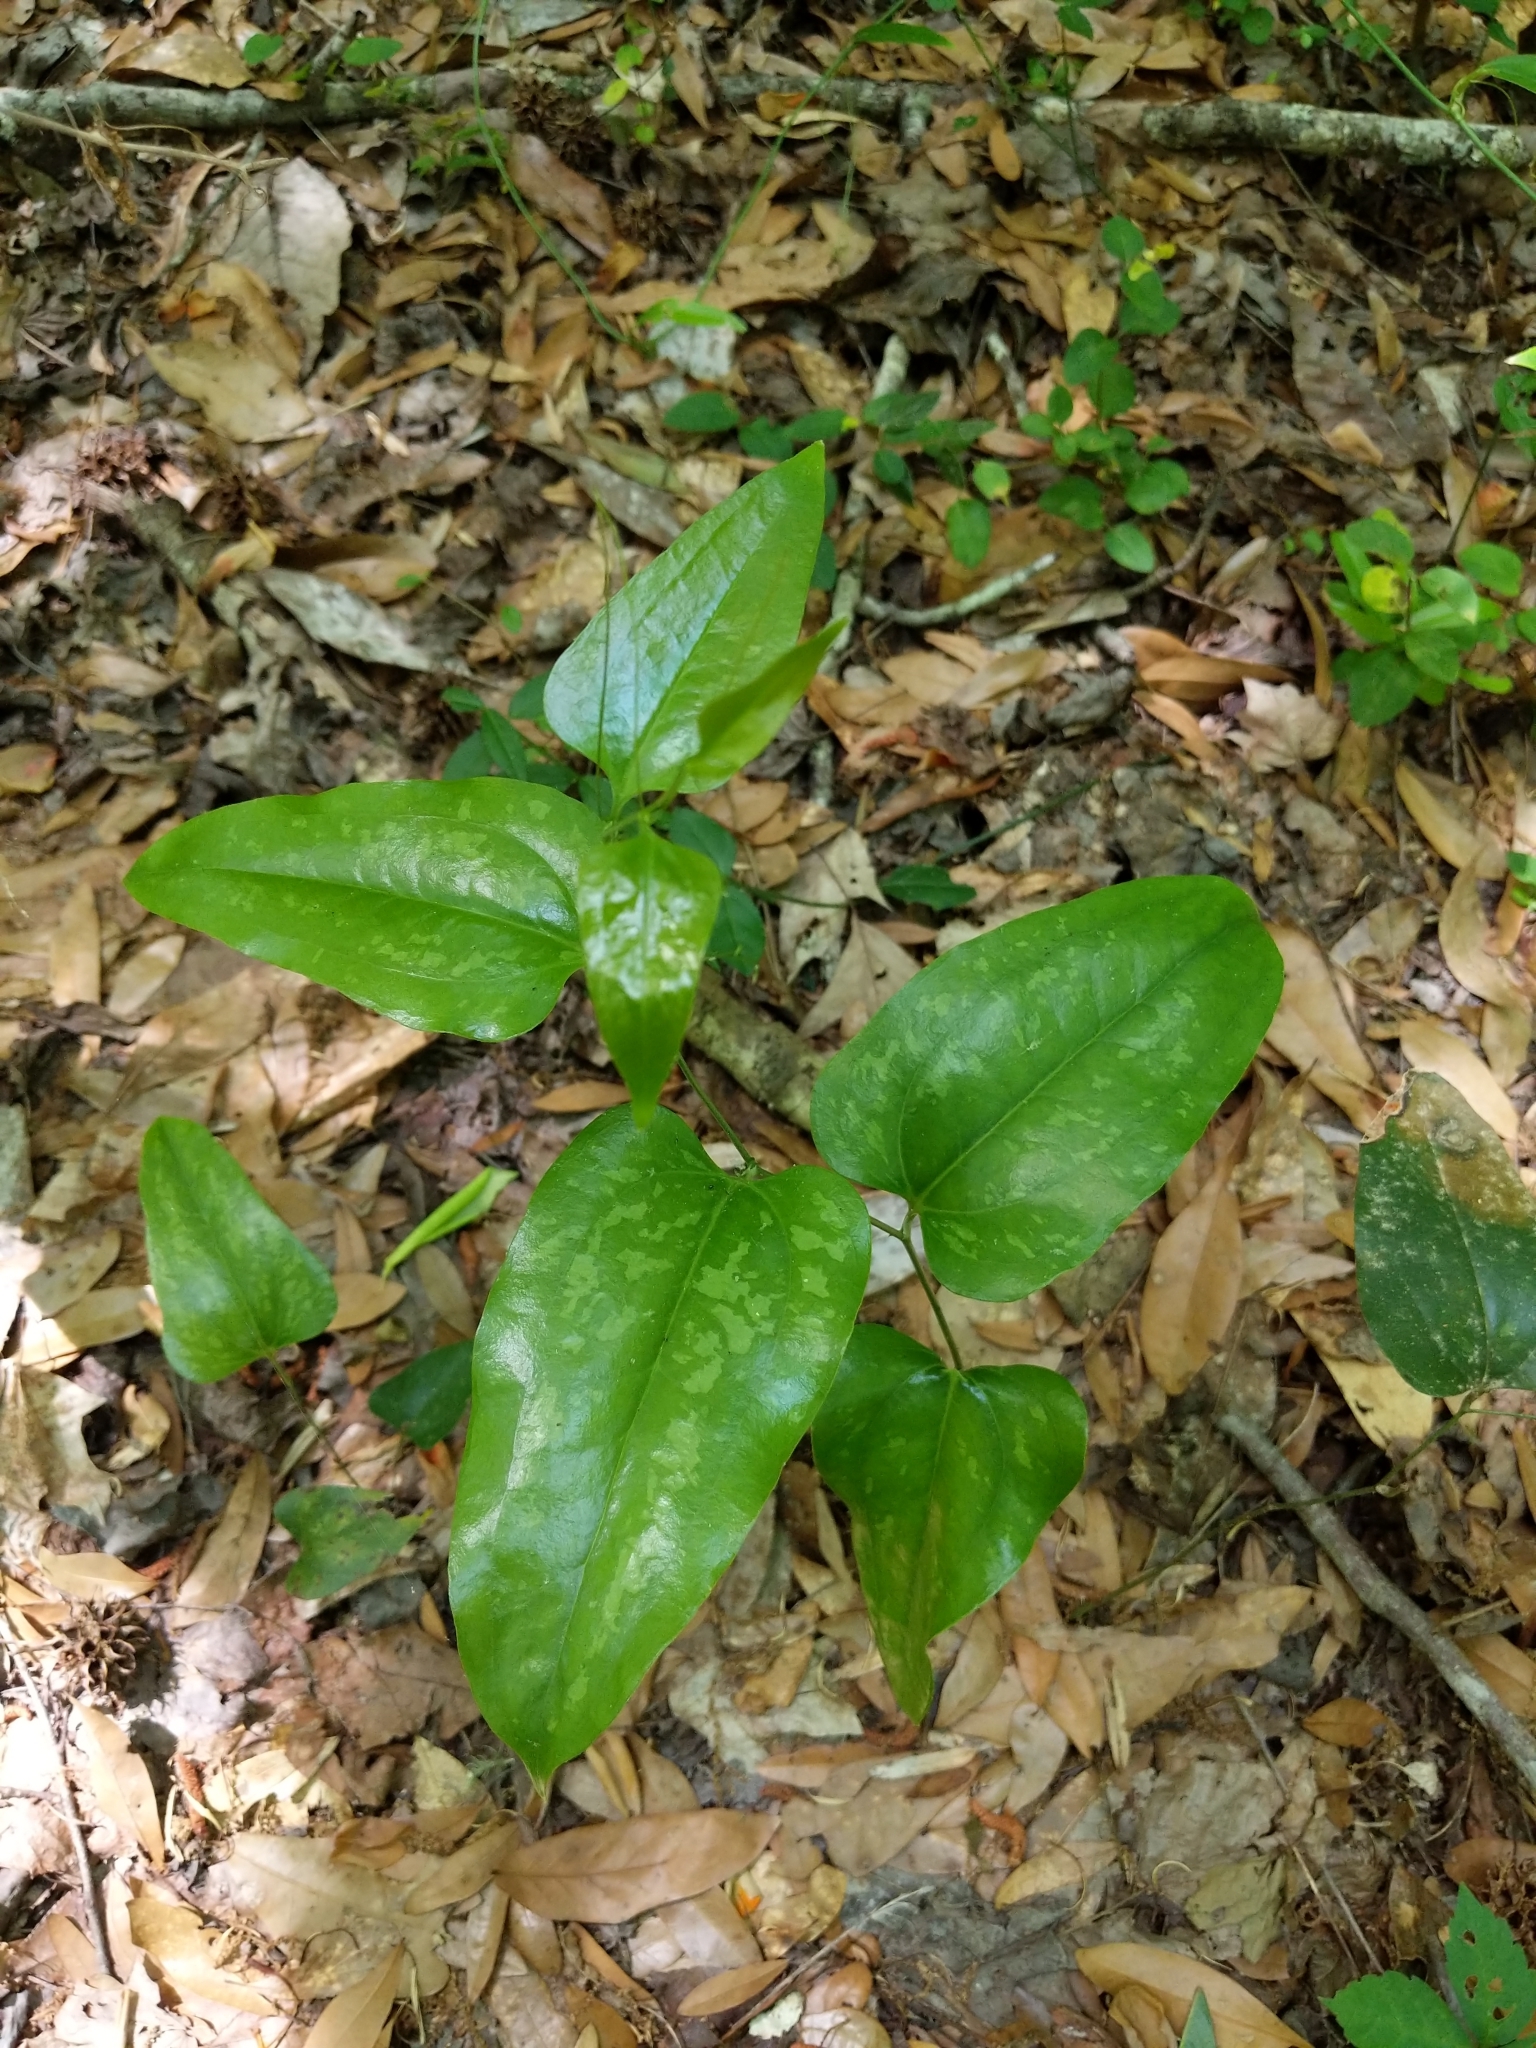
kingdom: Plantae
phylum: Tracheophyta
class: Liliopsida
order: Liliales
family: Smilacaceae
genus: Smilax
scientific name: Smilax bona-nox
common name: Catbrier
